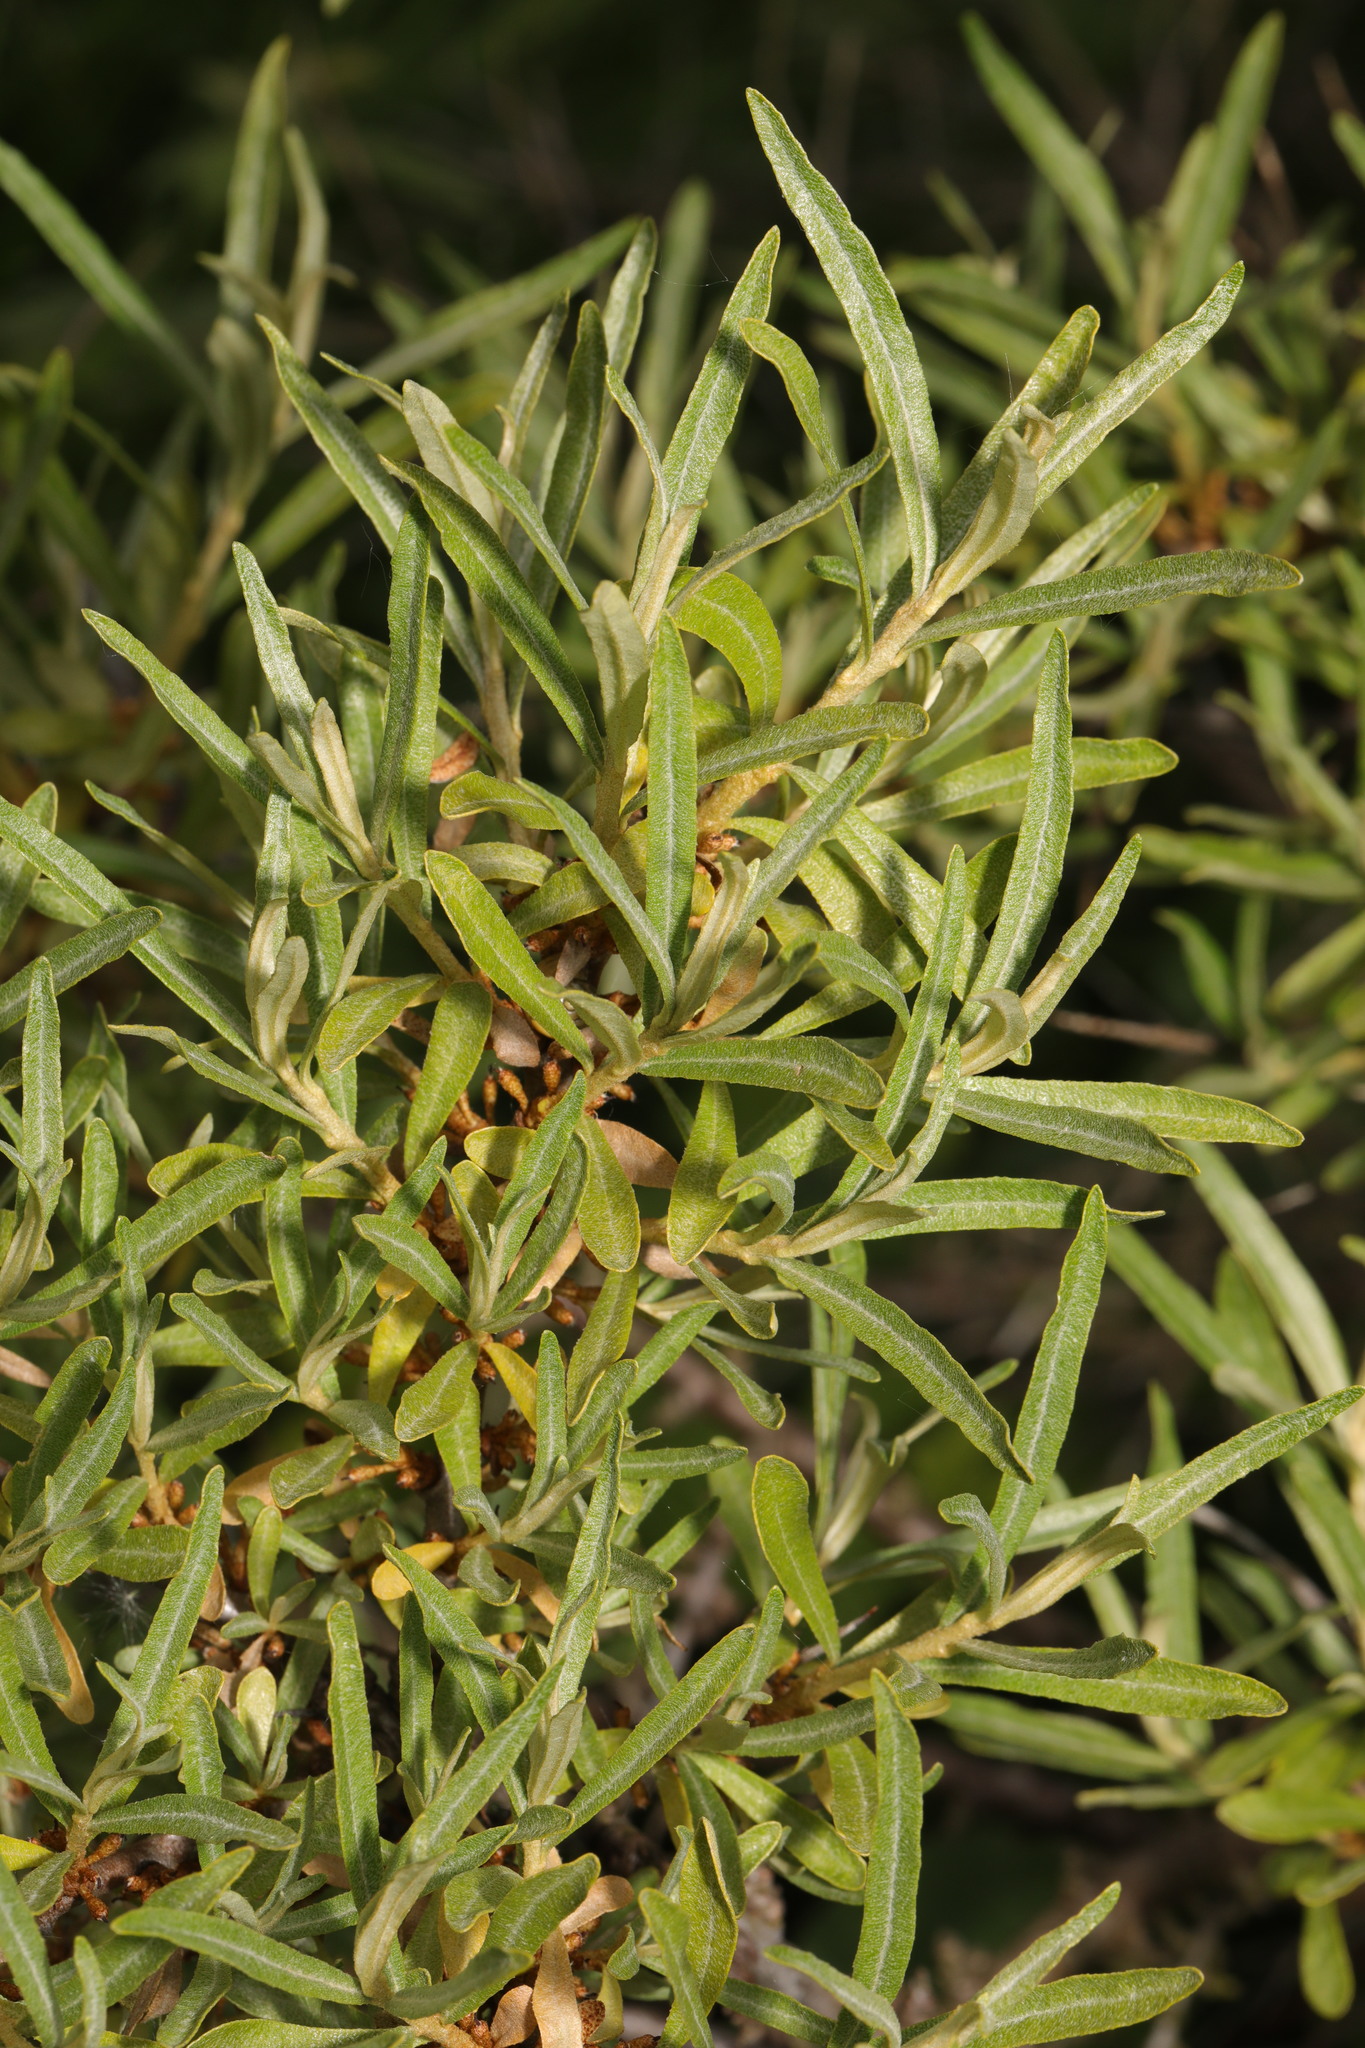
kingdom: Plantae
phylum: Tracheophyta
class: Magnoliopsida
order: Rosales
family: Elaeagnaceae
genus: Hippophae
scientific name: Hippophae rhamnoides
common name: Sea-buckthorn
